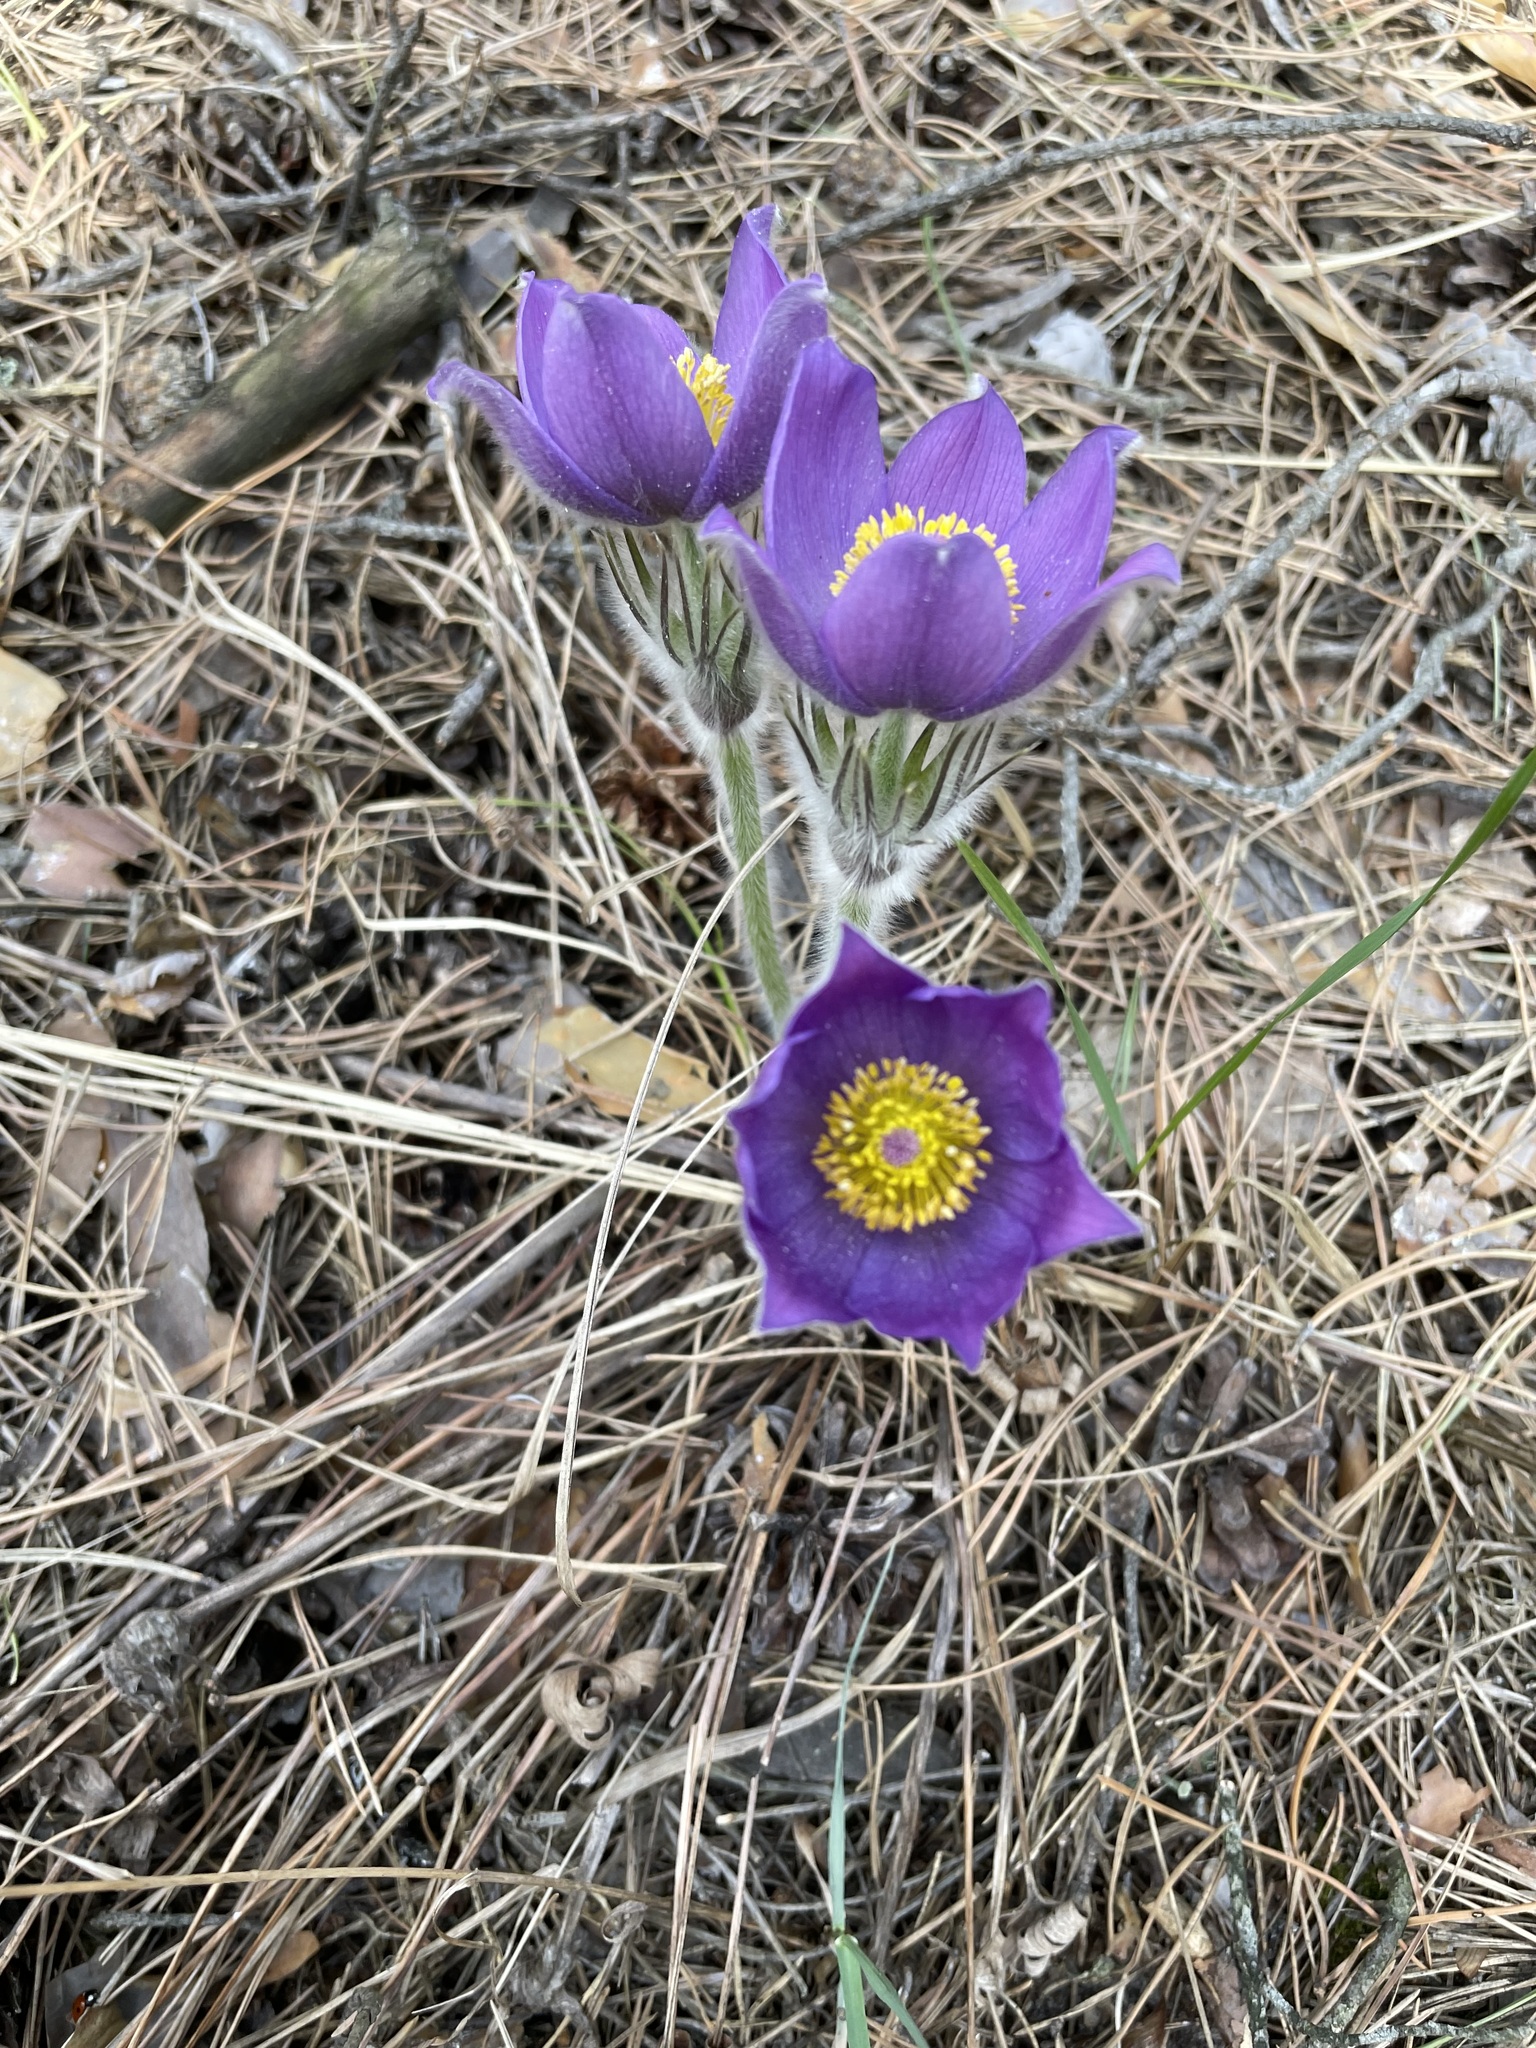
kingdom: Plantae
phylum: Tracheophyta
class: Magnoliopsida
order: Ranunculales
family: Ranunculaceae
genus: Pulsatilla
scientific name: Pulsatilla patens
